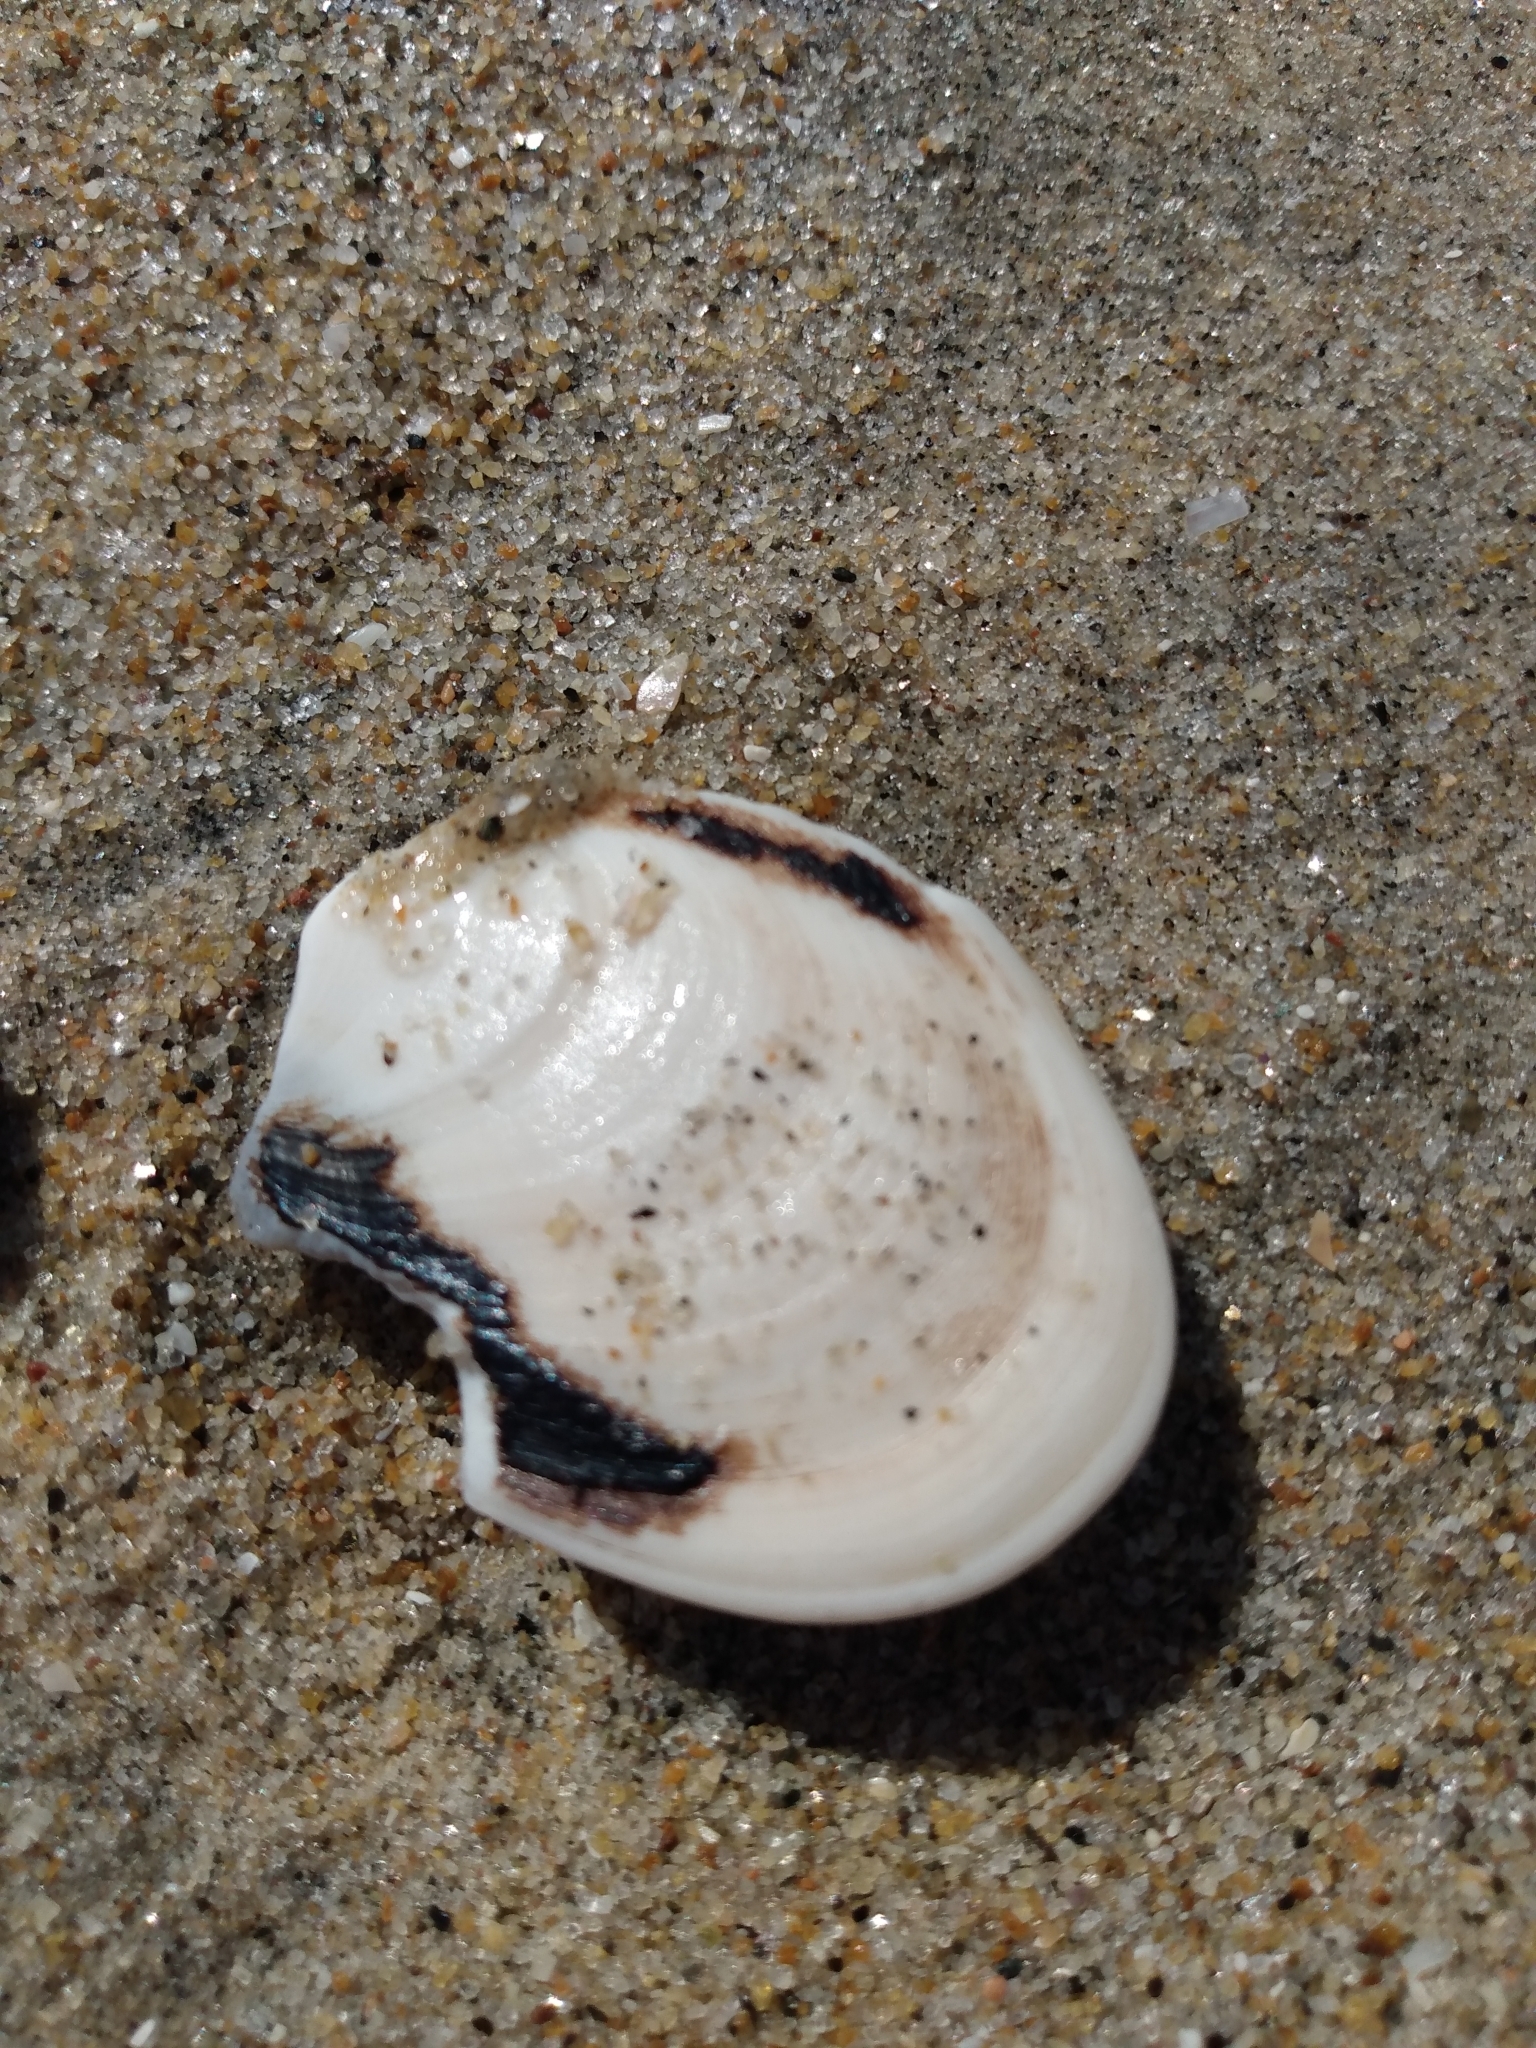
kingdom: Animalia
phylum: Mollusca
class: Gastropoda
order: Trochida
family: Turbinidae
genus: Megastraea
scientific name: Megastraea undosa
